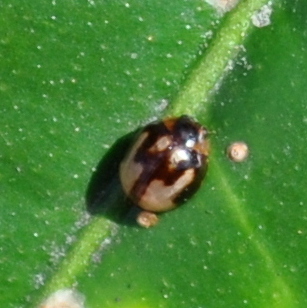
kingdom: Animalia
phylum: Arthropoda
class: Insecta
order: Coleoptera
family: Coccinellidae
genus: Calloeneis
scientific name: Calloeneis
